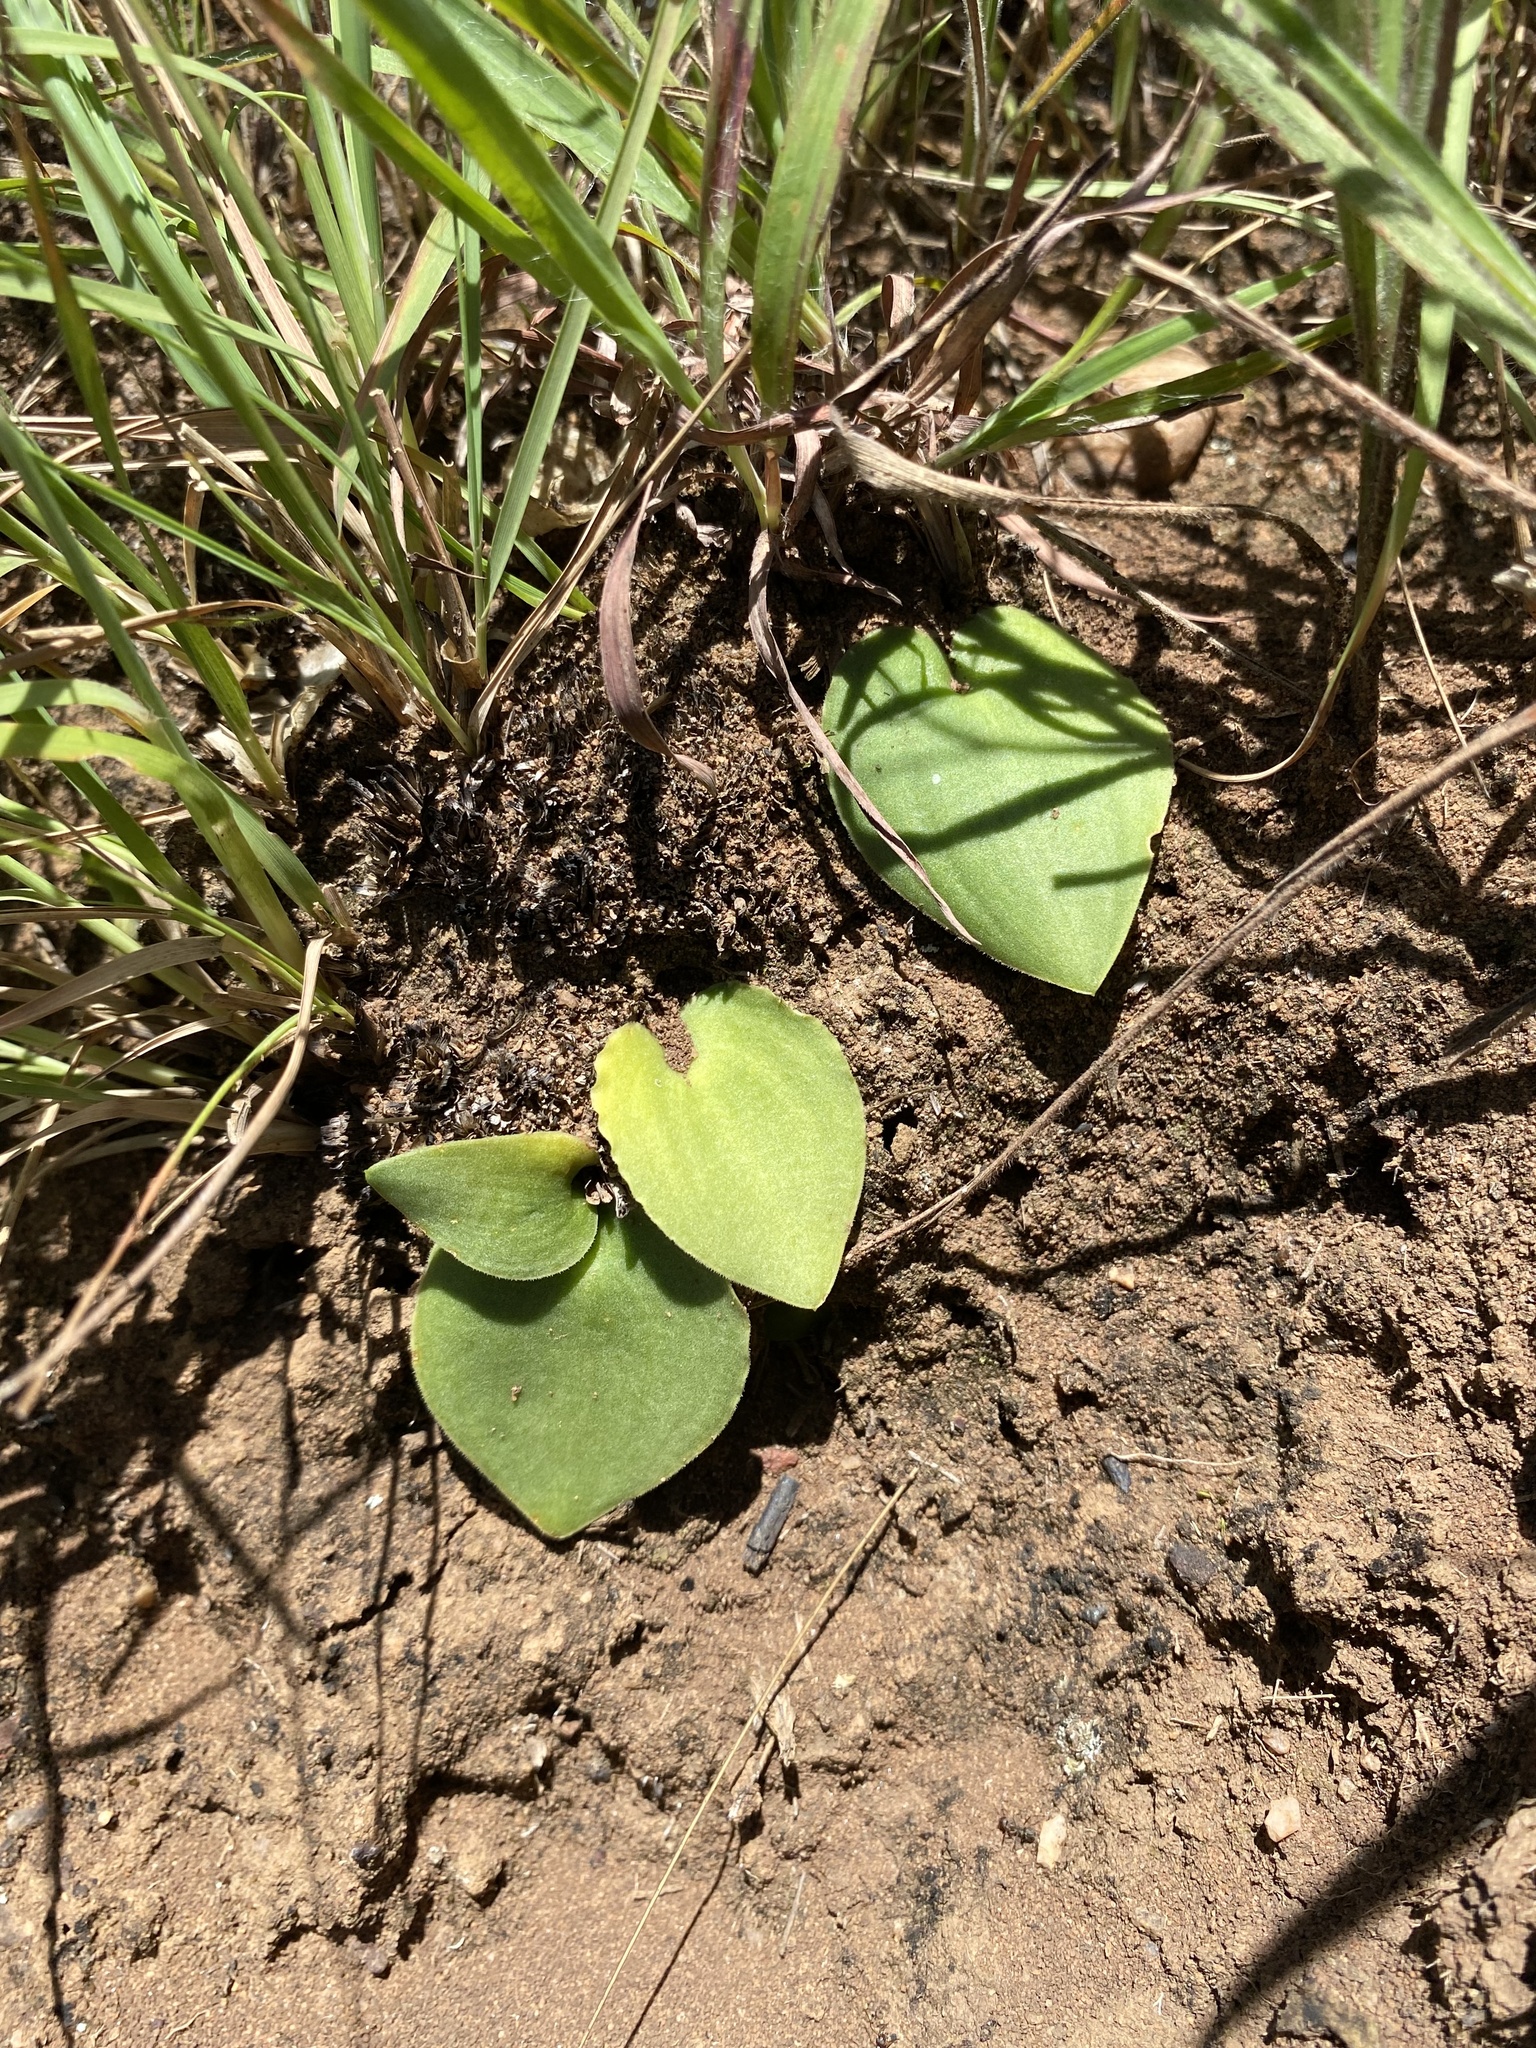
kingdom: Plantae
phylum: Tracheophyta
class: Liliopsida
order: Asparagales
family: Asparagaceae
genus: Eriospermum
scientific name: Eriospermum cooperi
